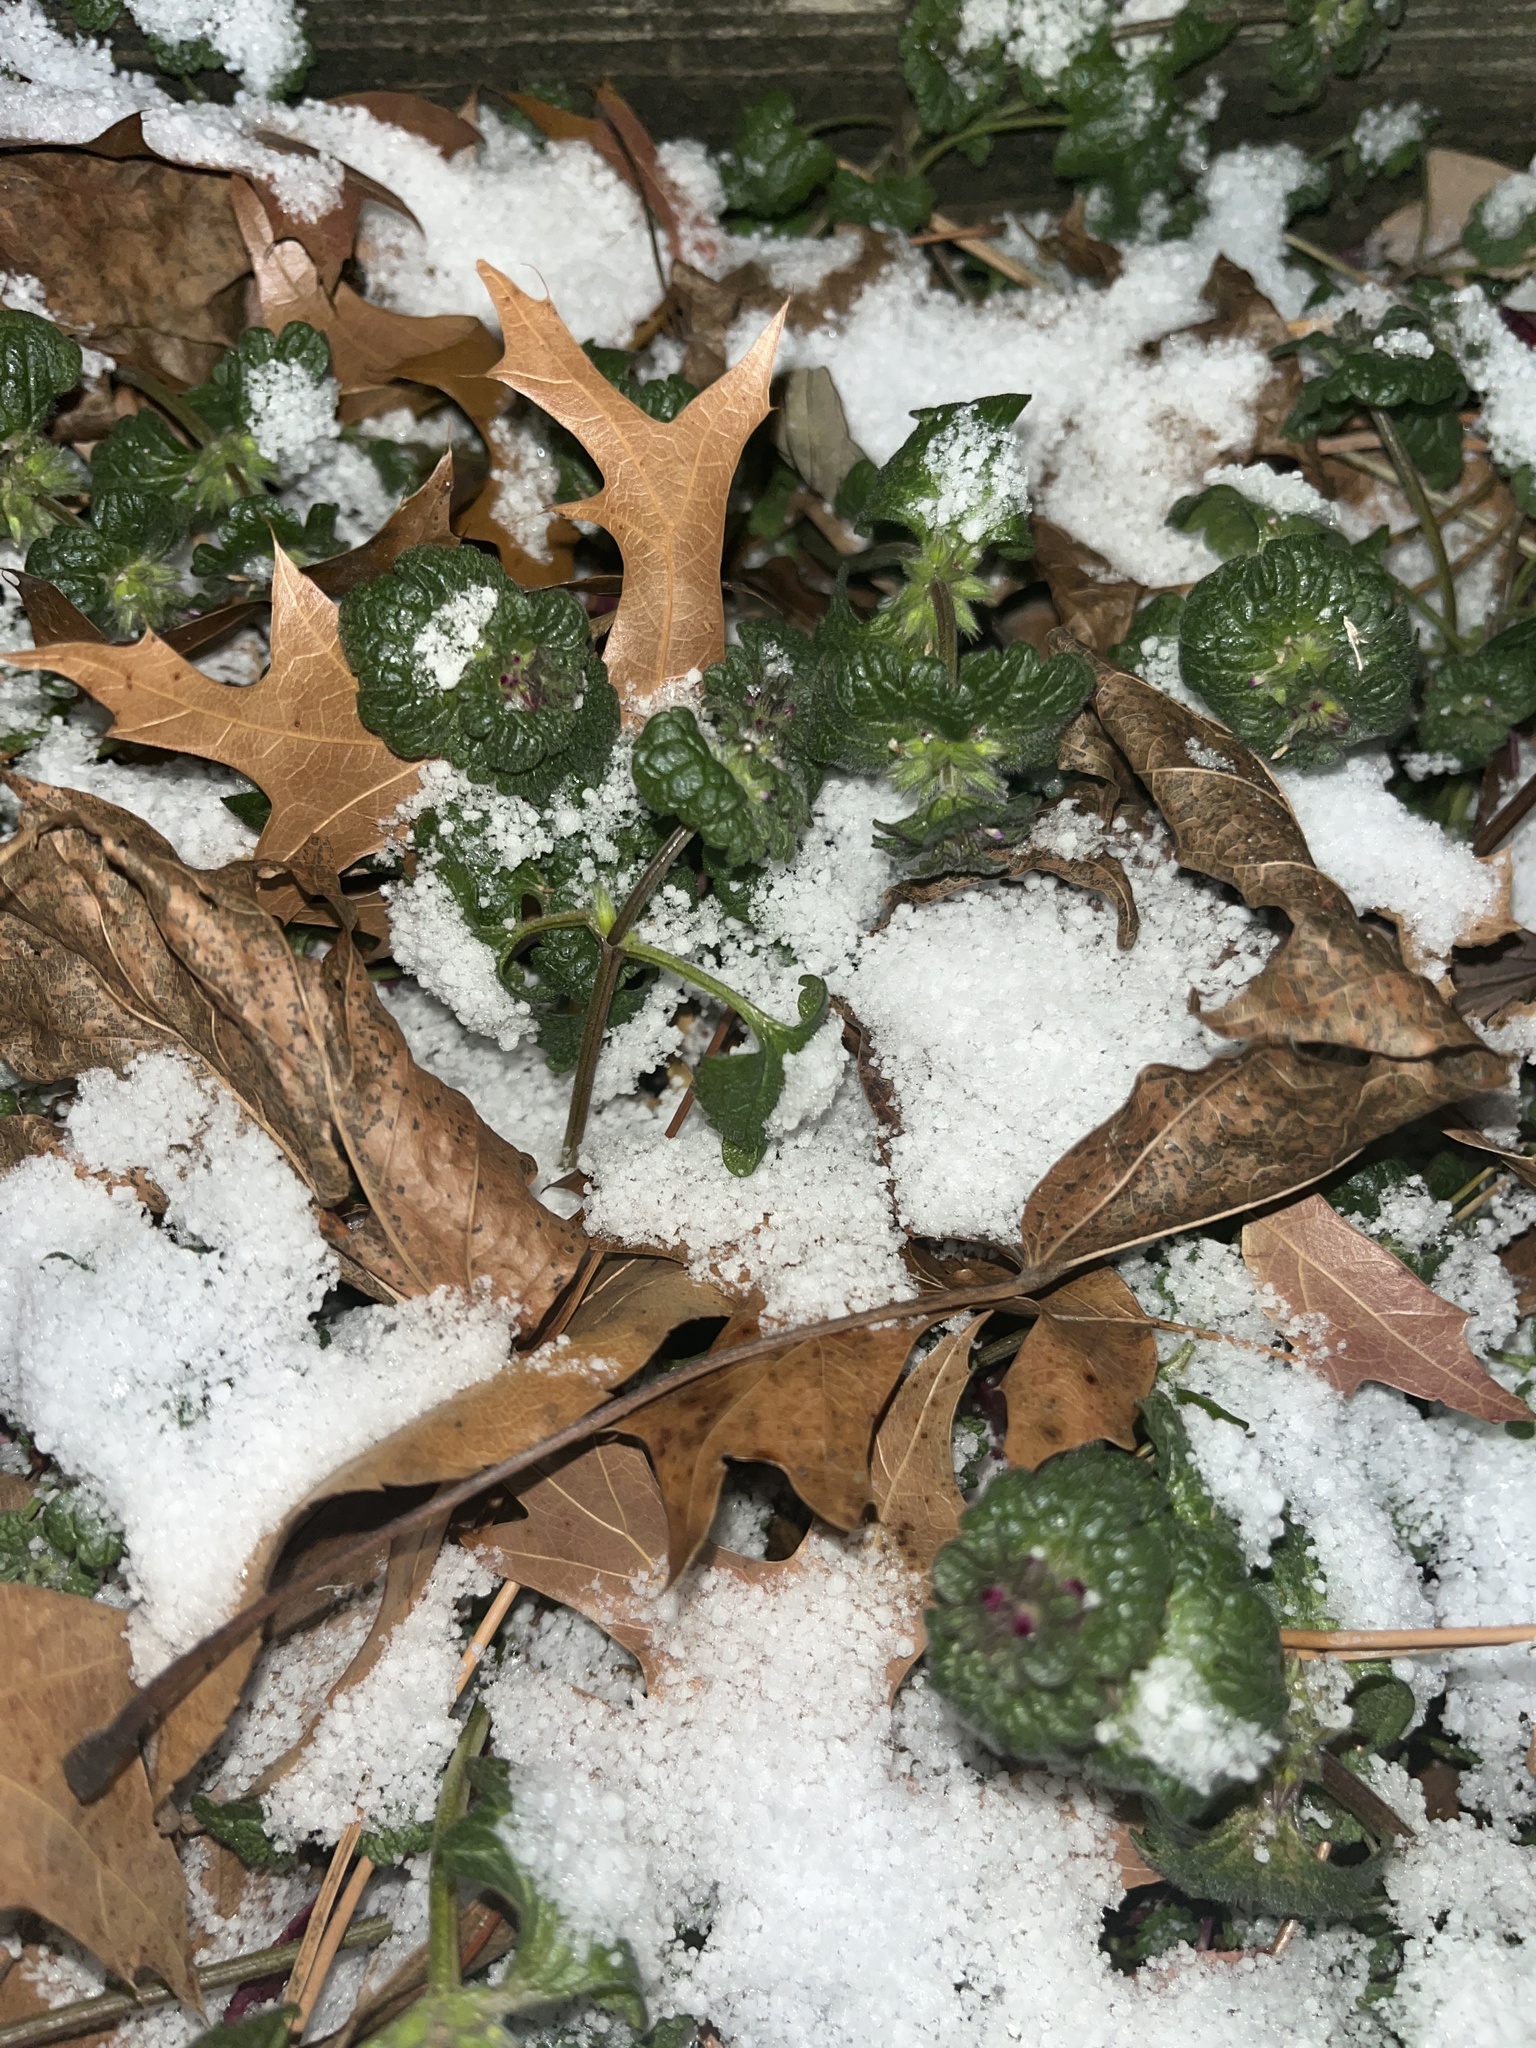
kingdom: Plantae
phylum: Tracheophyta
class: Magnoliopsida
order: Lamiales
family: Lamiaceae
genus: Lamium
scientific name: Lamium amplexicaule
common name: Henbit dead-nettle
